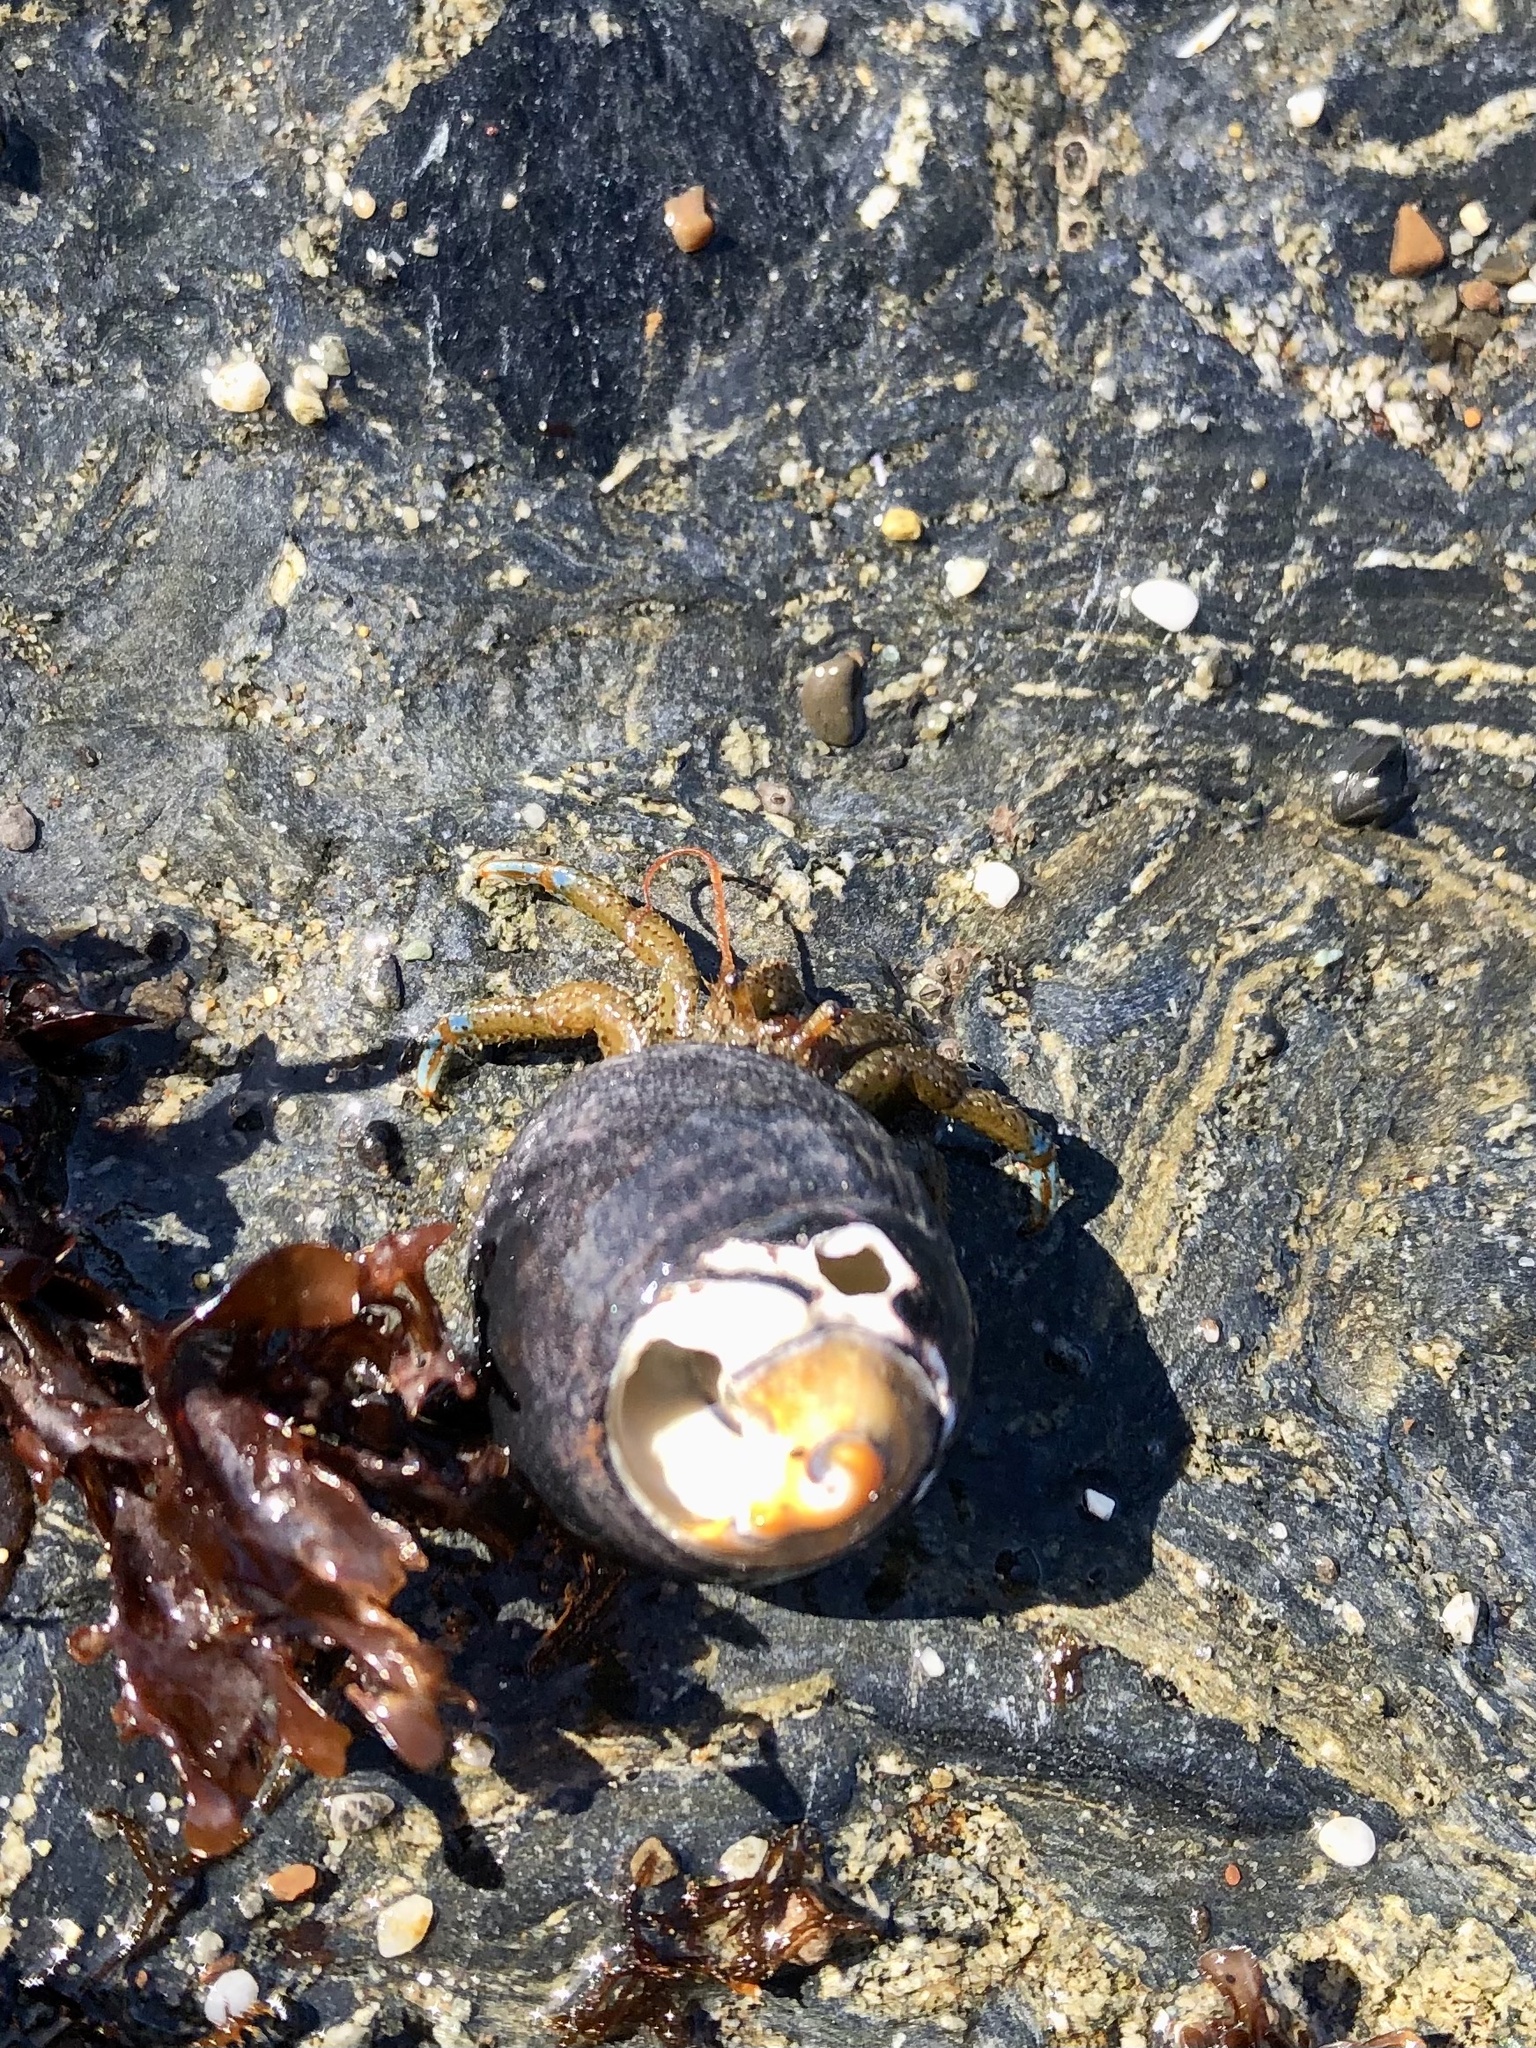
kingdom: Animalia
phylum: Arthropoda
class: Malacostraca
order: Decapoda
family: Paguridae
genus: Pagurus
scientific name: Pagurus samuelis
